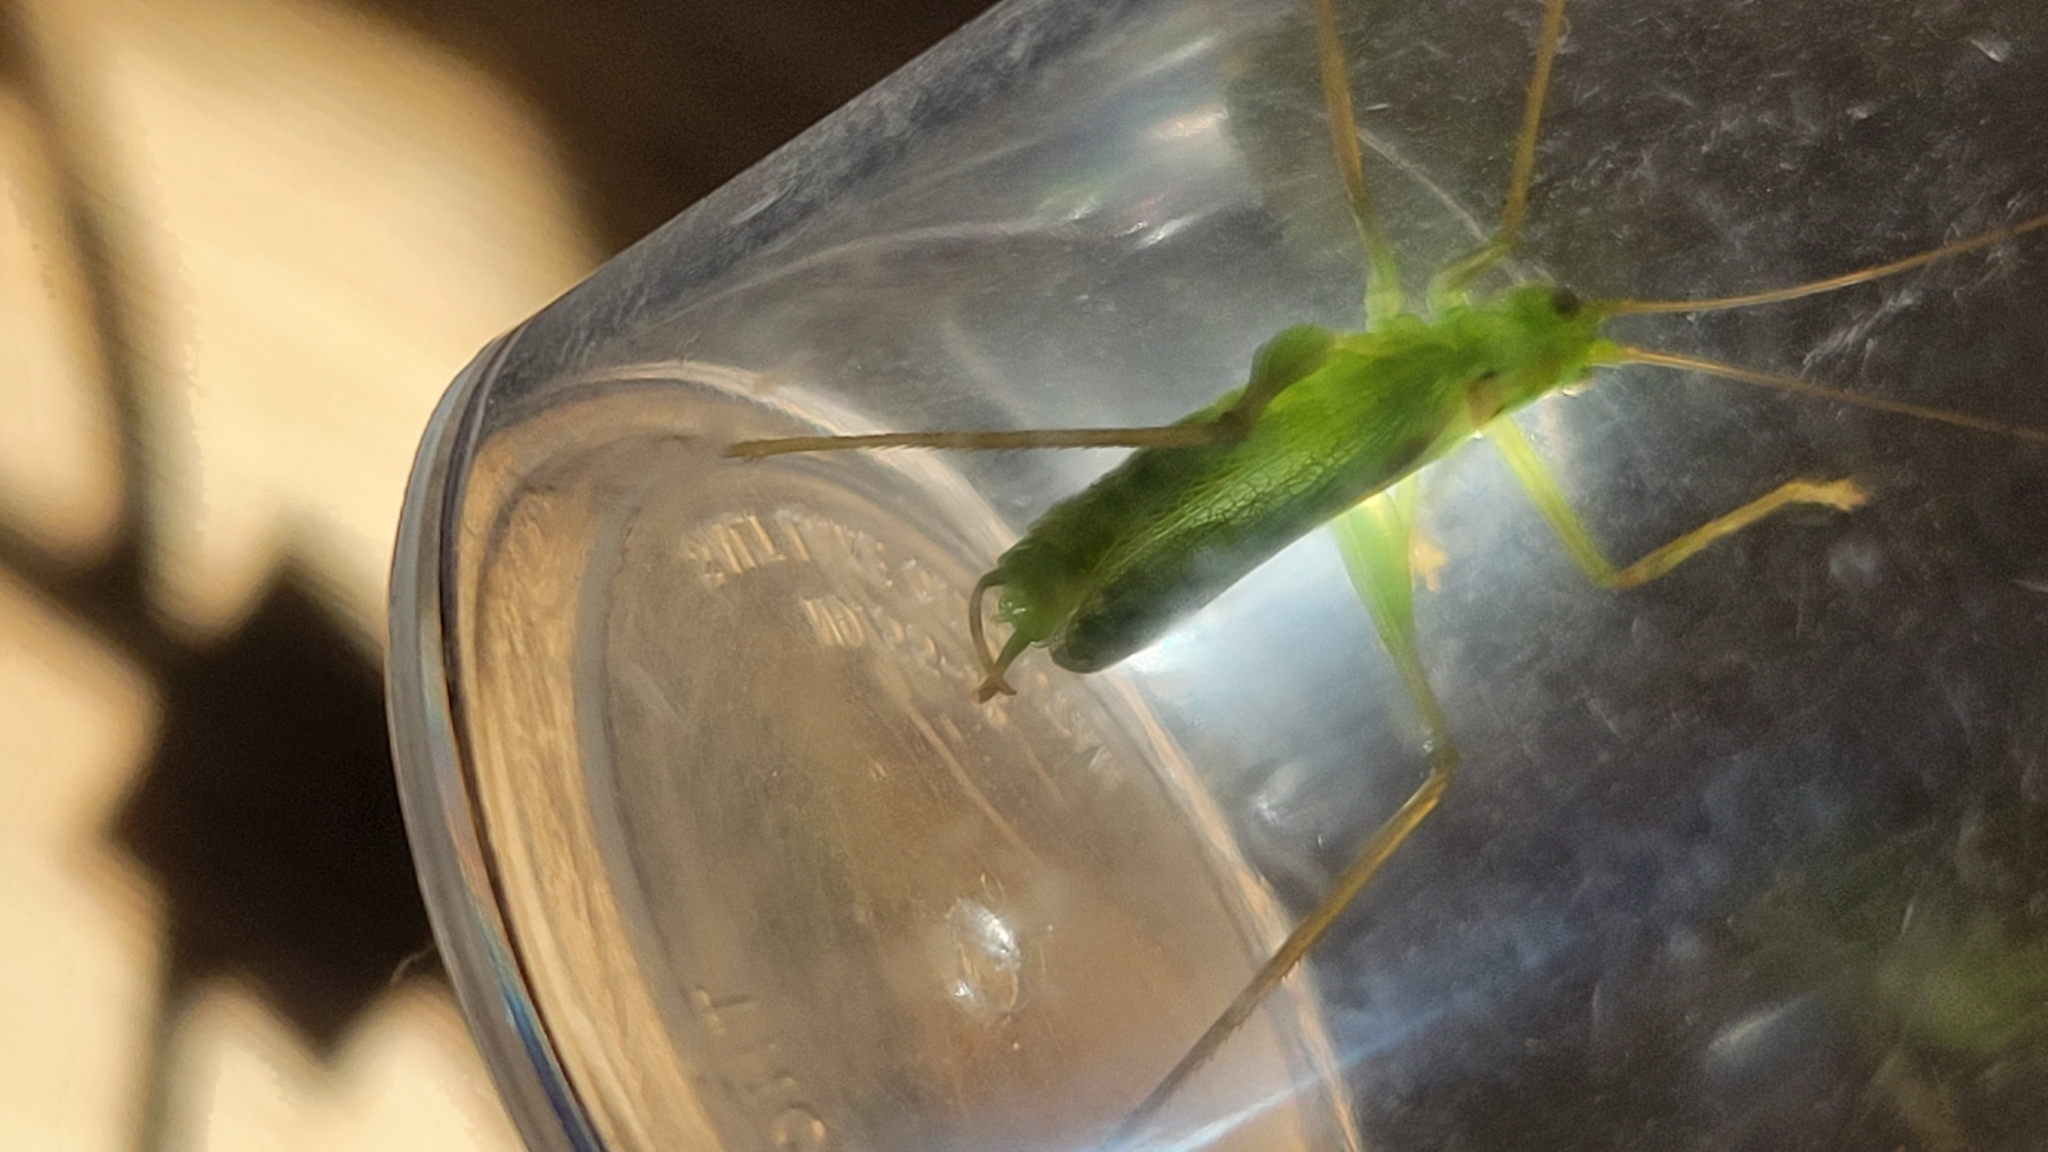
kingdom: Animalia
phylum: Arthropoda
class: Insecta
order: Orthoptera
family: Tettigoniidae
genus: Meconema
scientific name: Meconema thalassinum
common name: Oak bush-cricket
